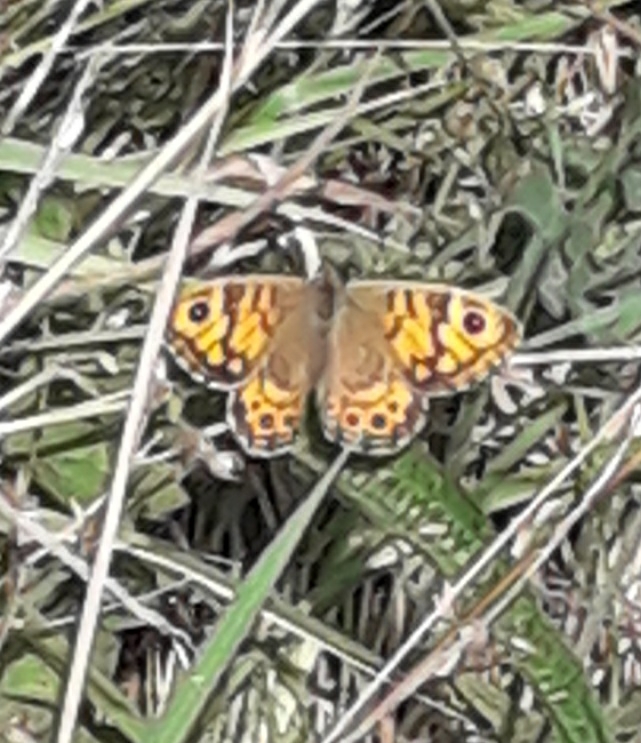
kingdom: Animalia
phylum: Arthropoda
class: Insecta
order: Lepidoptera
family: Nymphalidae
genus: Pararge
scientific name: Pararge Lasiommata megera
